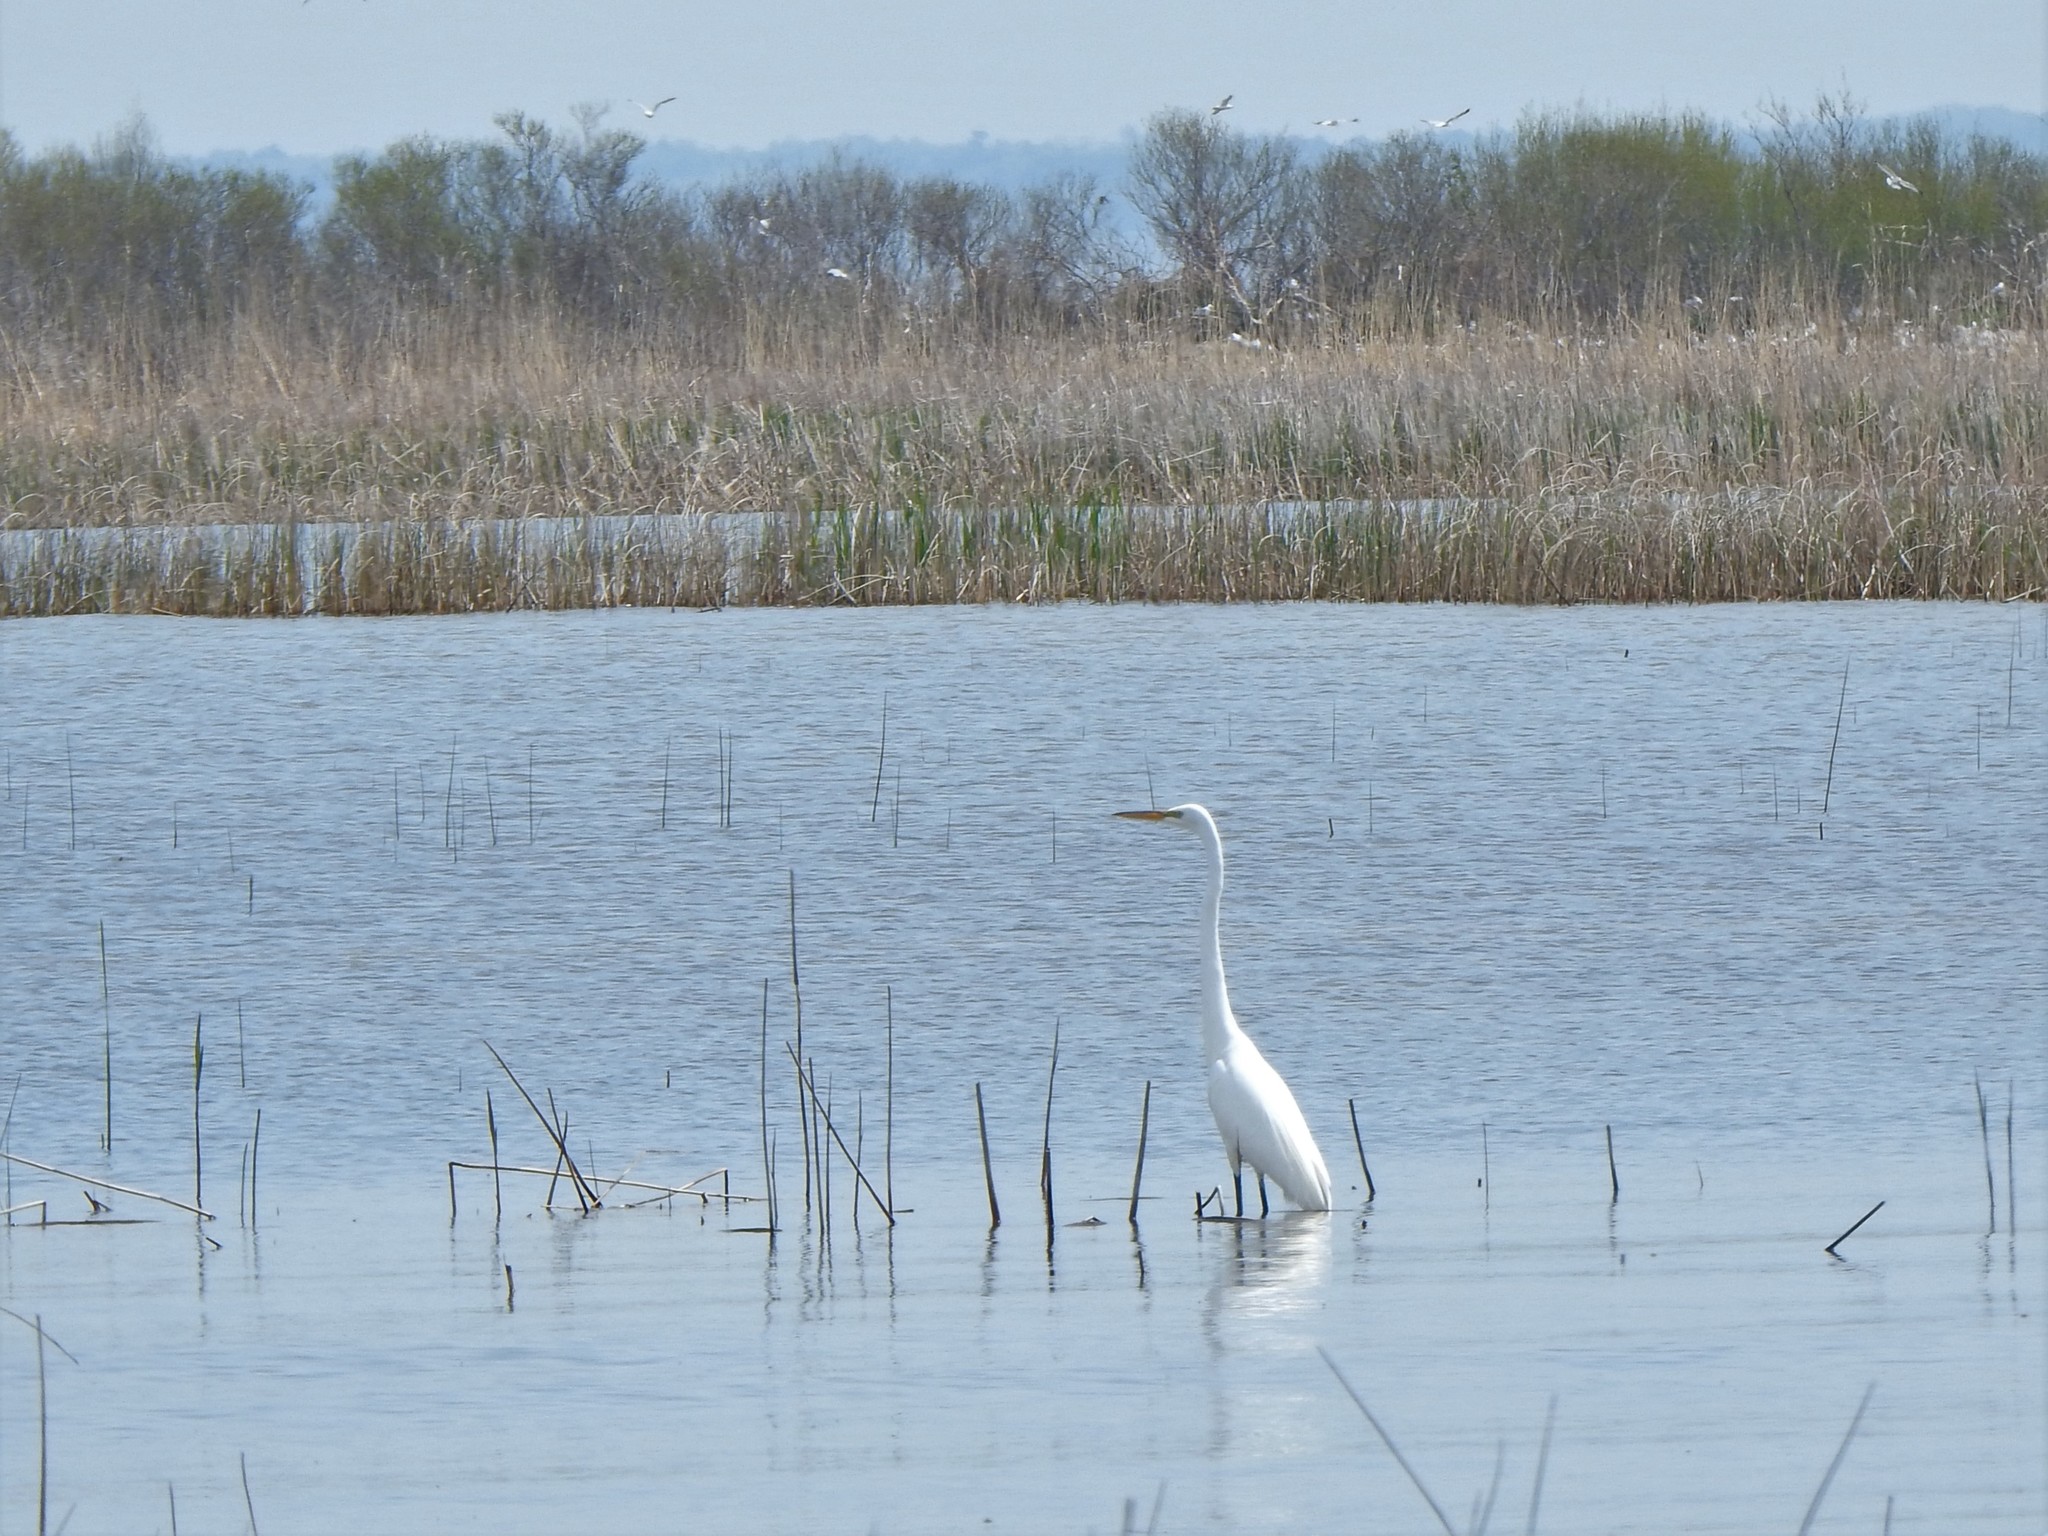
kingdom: Animalia
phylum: Chordata
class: Aves
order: Pelecaniformes
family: Ardeidae
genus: Ardea
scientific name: Ardea alba
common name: Great egret
